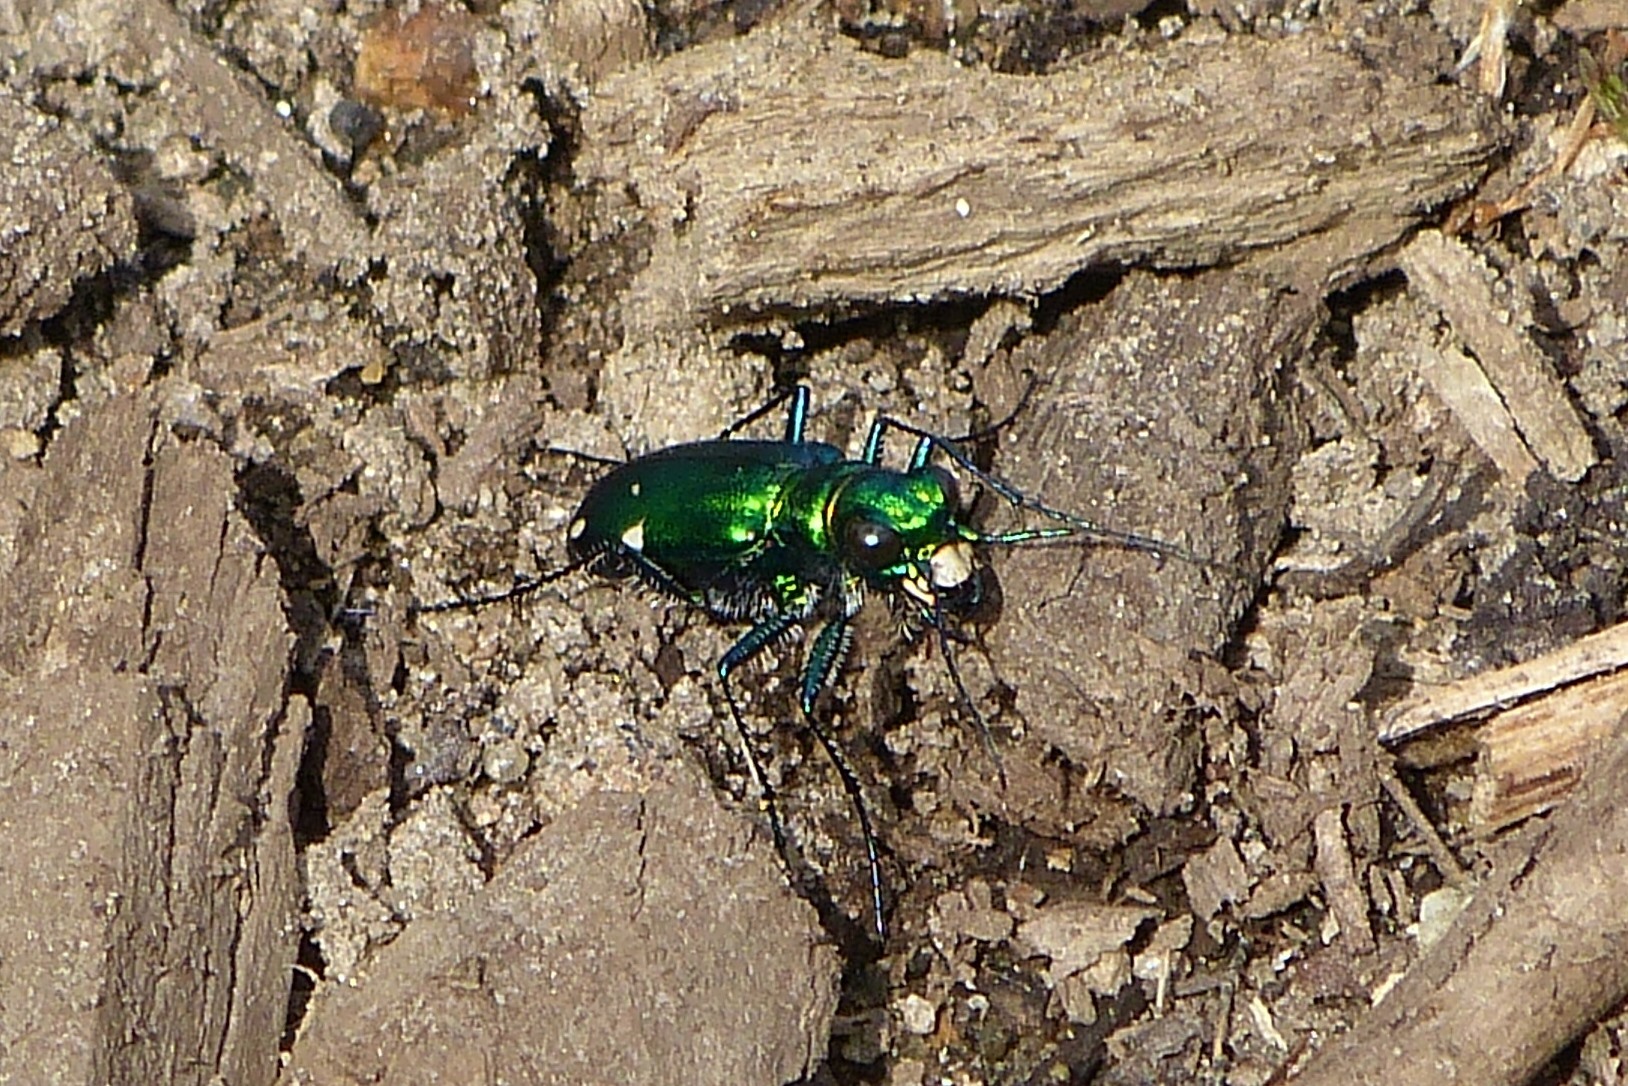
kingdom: Animalia
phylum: Arthropoda
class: Insecta
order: Coleoptera
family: Carabidae
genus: Cicindela
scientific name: Cicindela sexguttata
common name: Six-spotted tiger beetle
